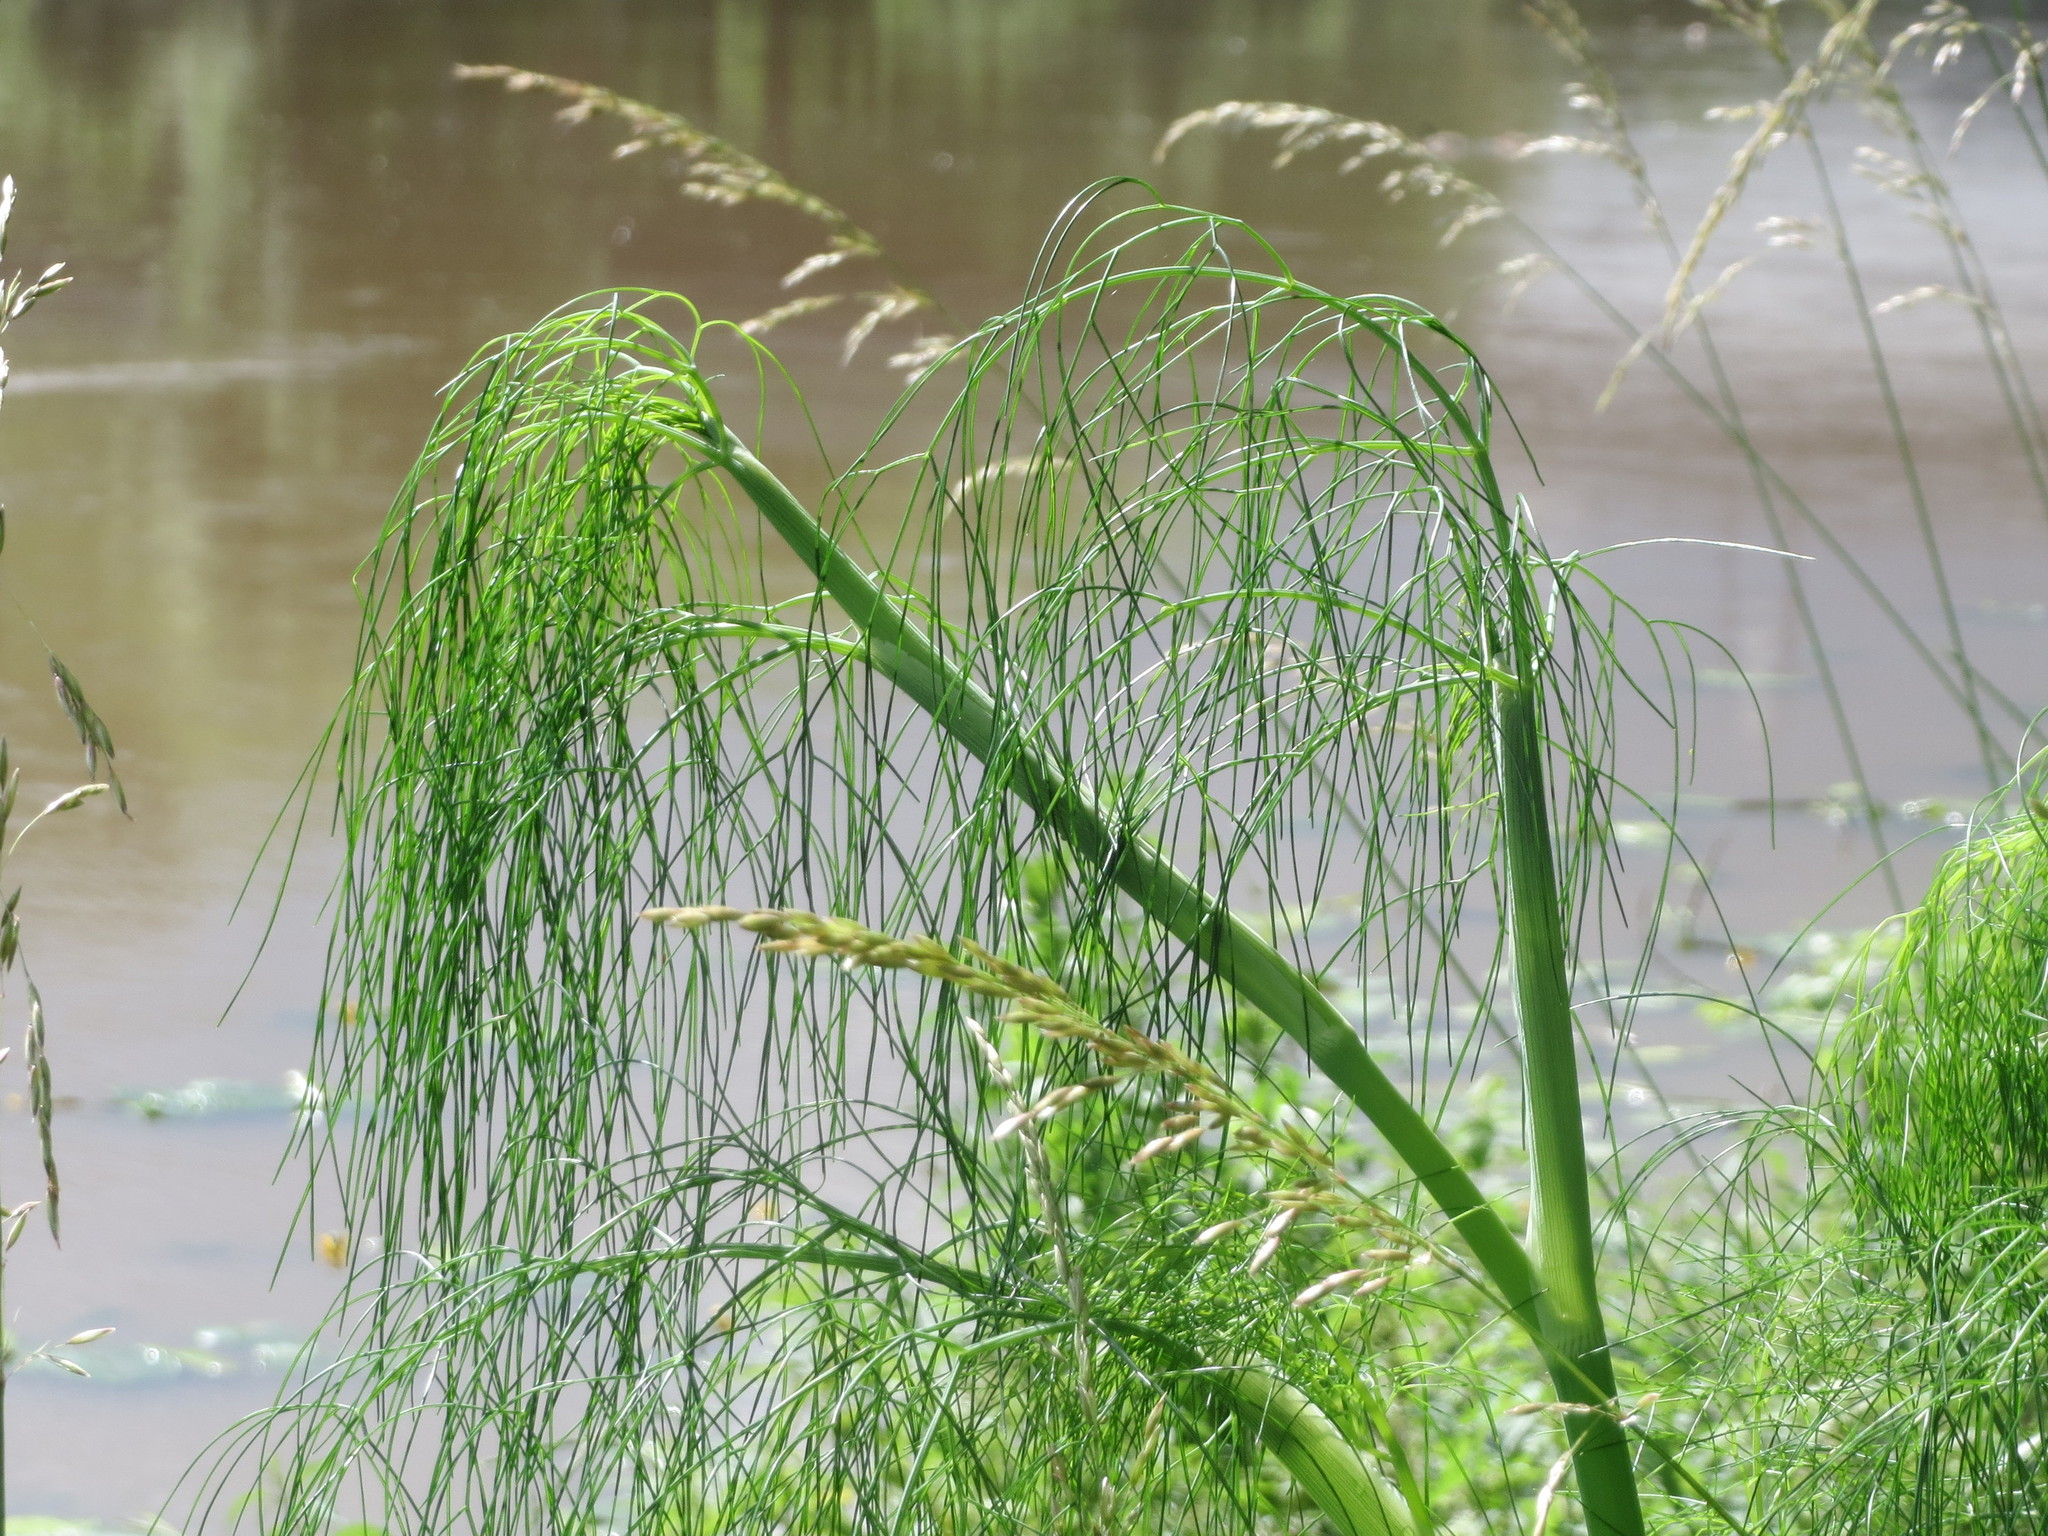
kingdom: Plantae
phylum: Tracheophyta
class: Magnoliopsida
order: Apiales
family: Apiaceae
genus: Anethum
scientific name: Anethum graveolens
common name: Dill
